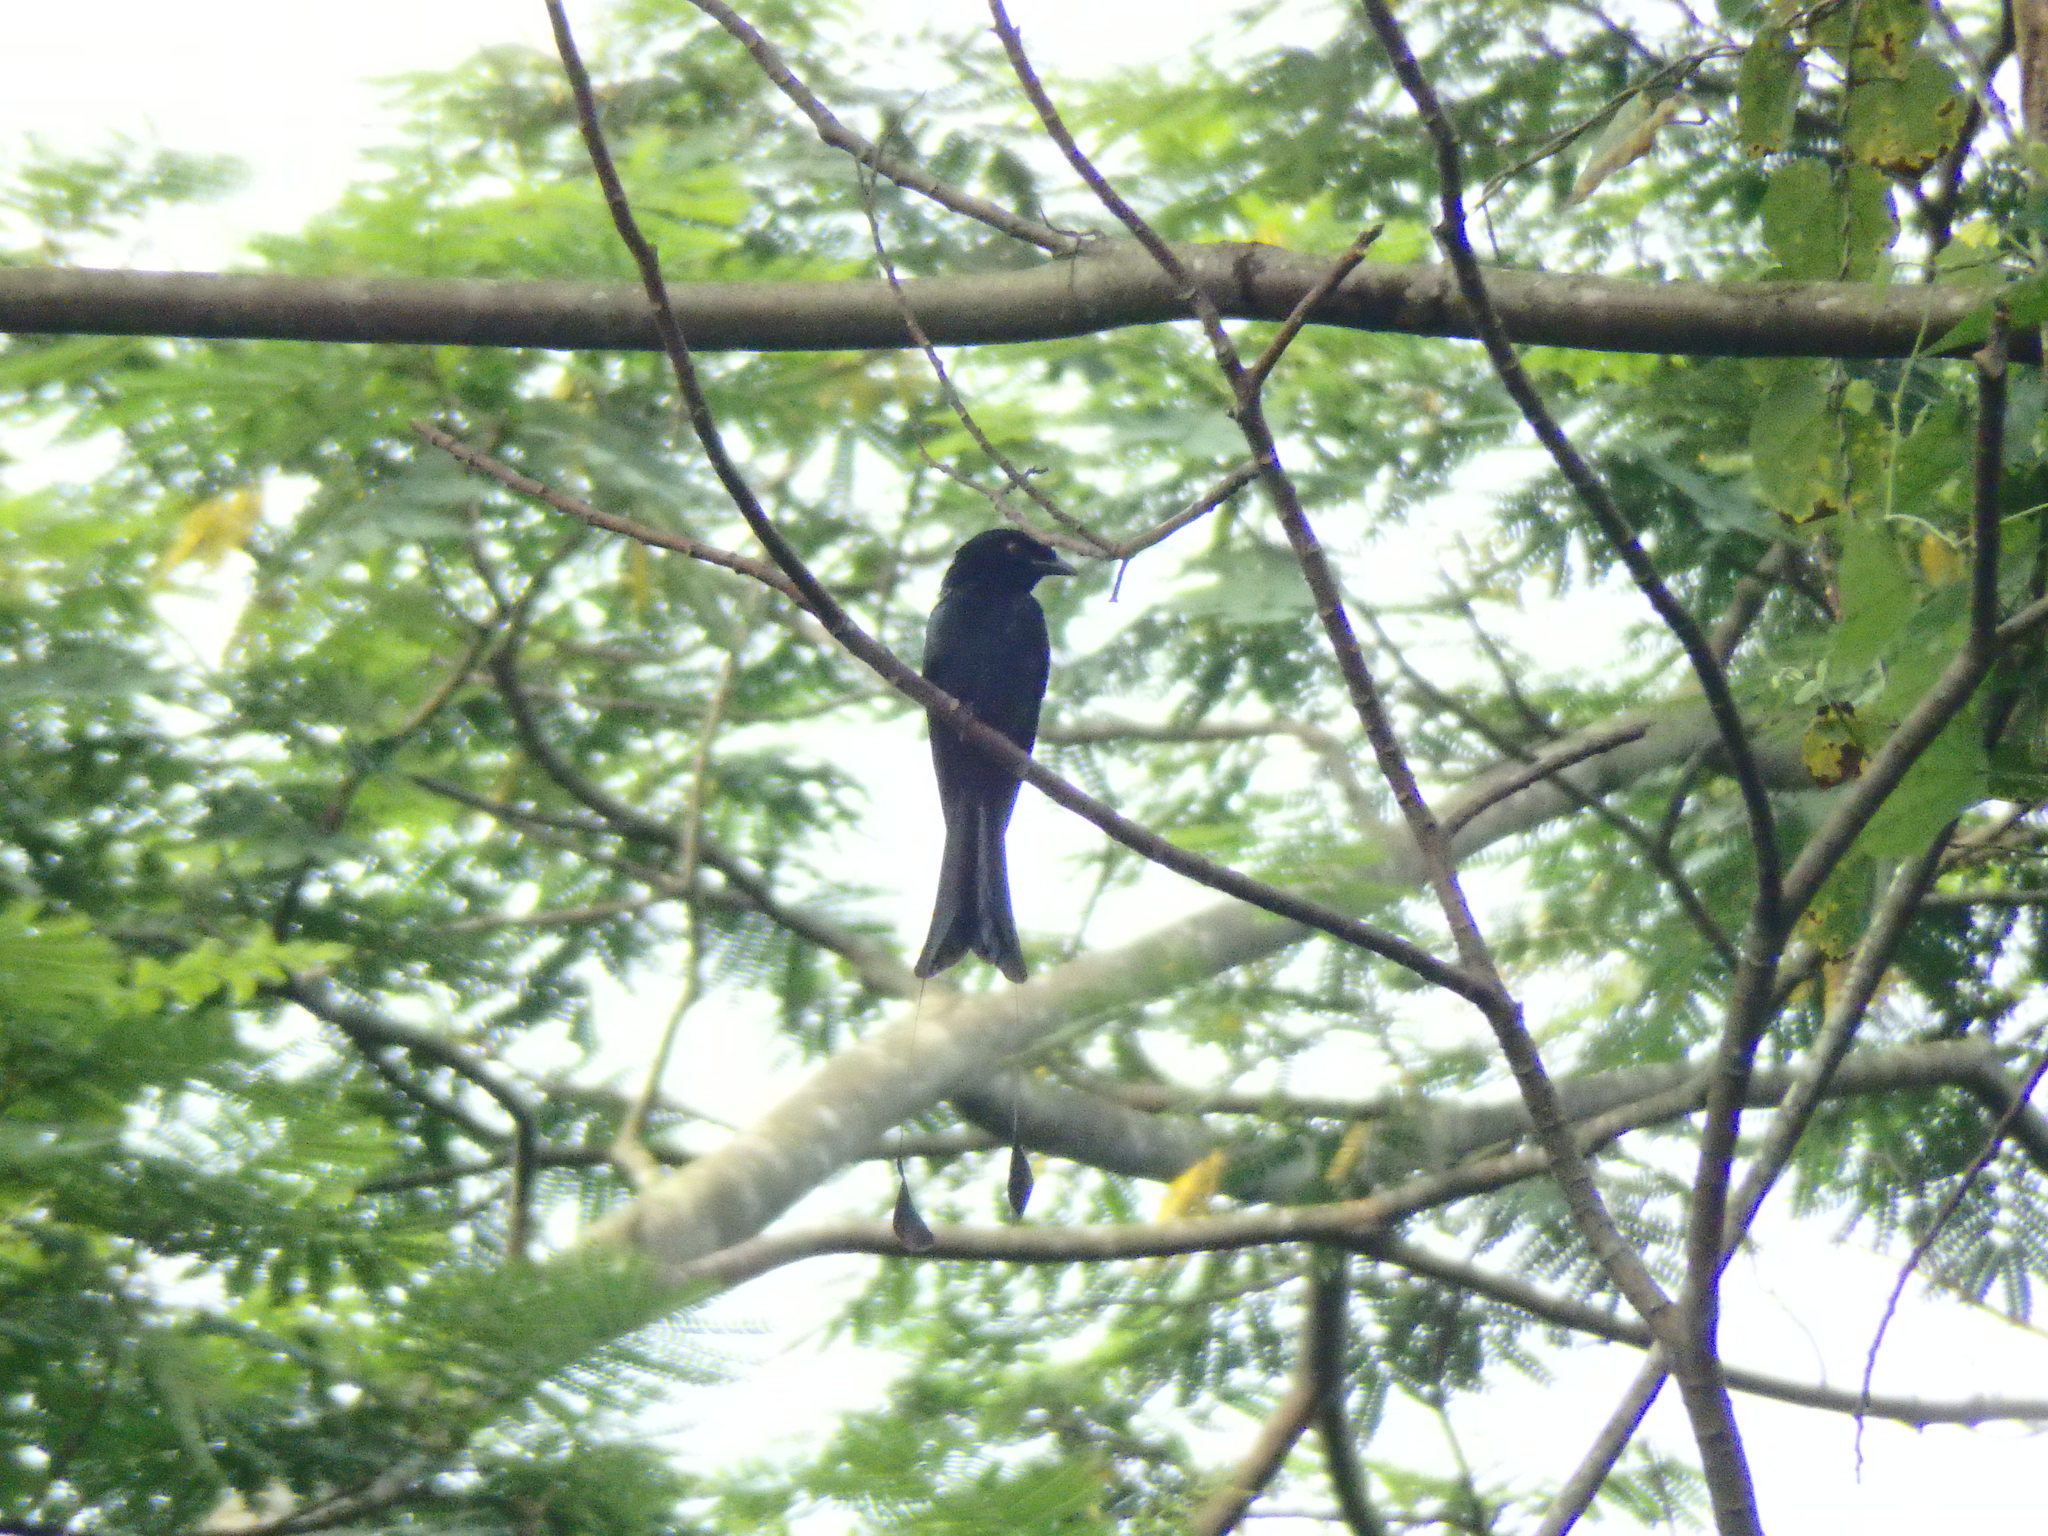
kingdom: Animalia
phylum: Chordata
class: Aves
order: Passeriformes
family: Dicruridae
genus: Dicrurus
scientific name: Dicrurus paradiseus
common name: Greater racket-tailed drongo
